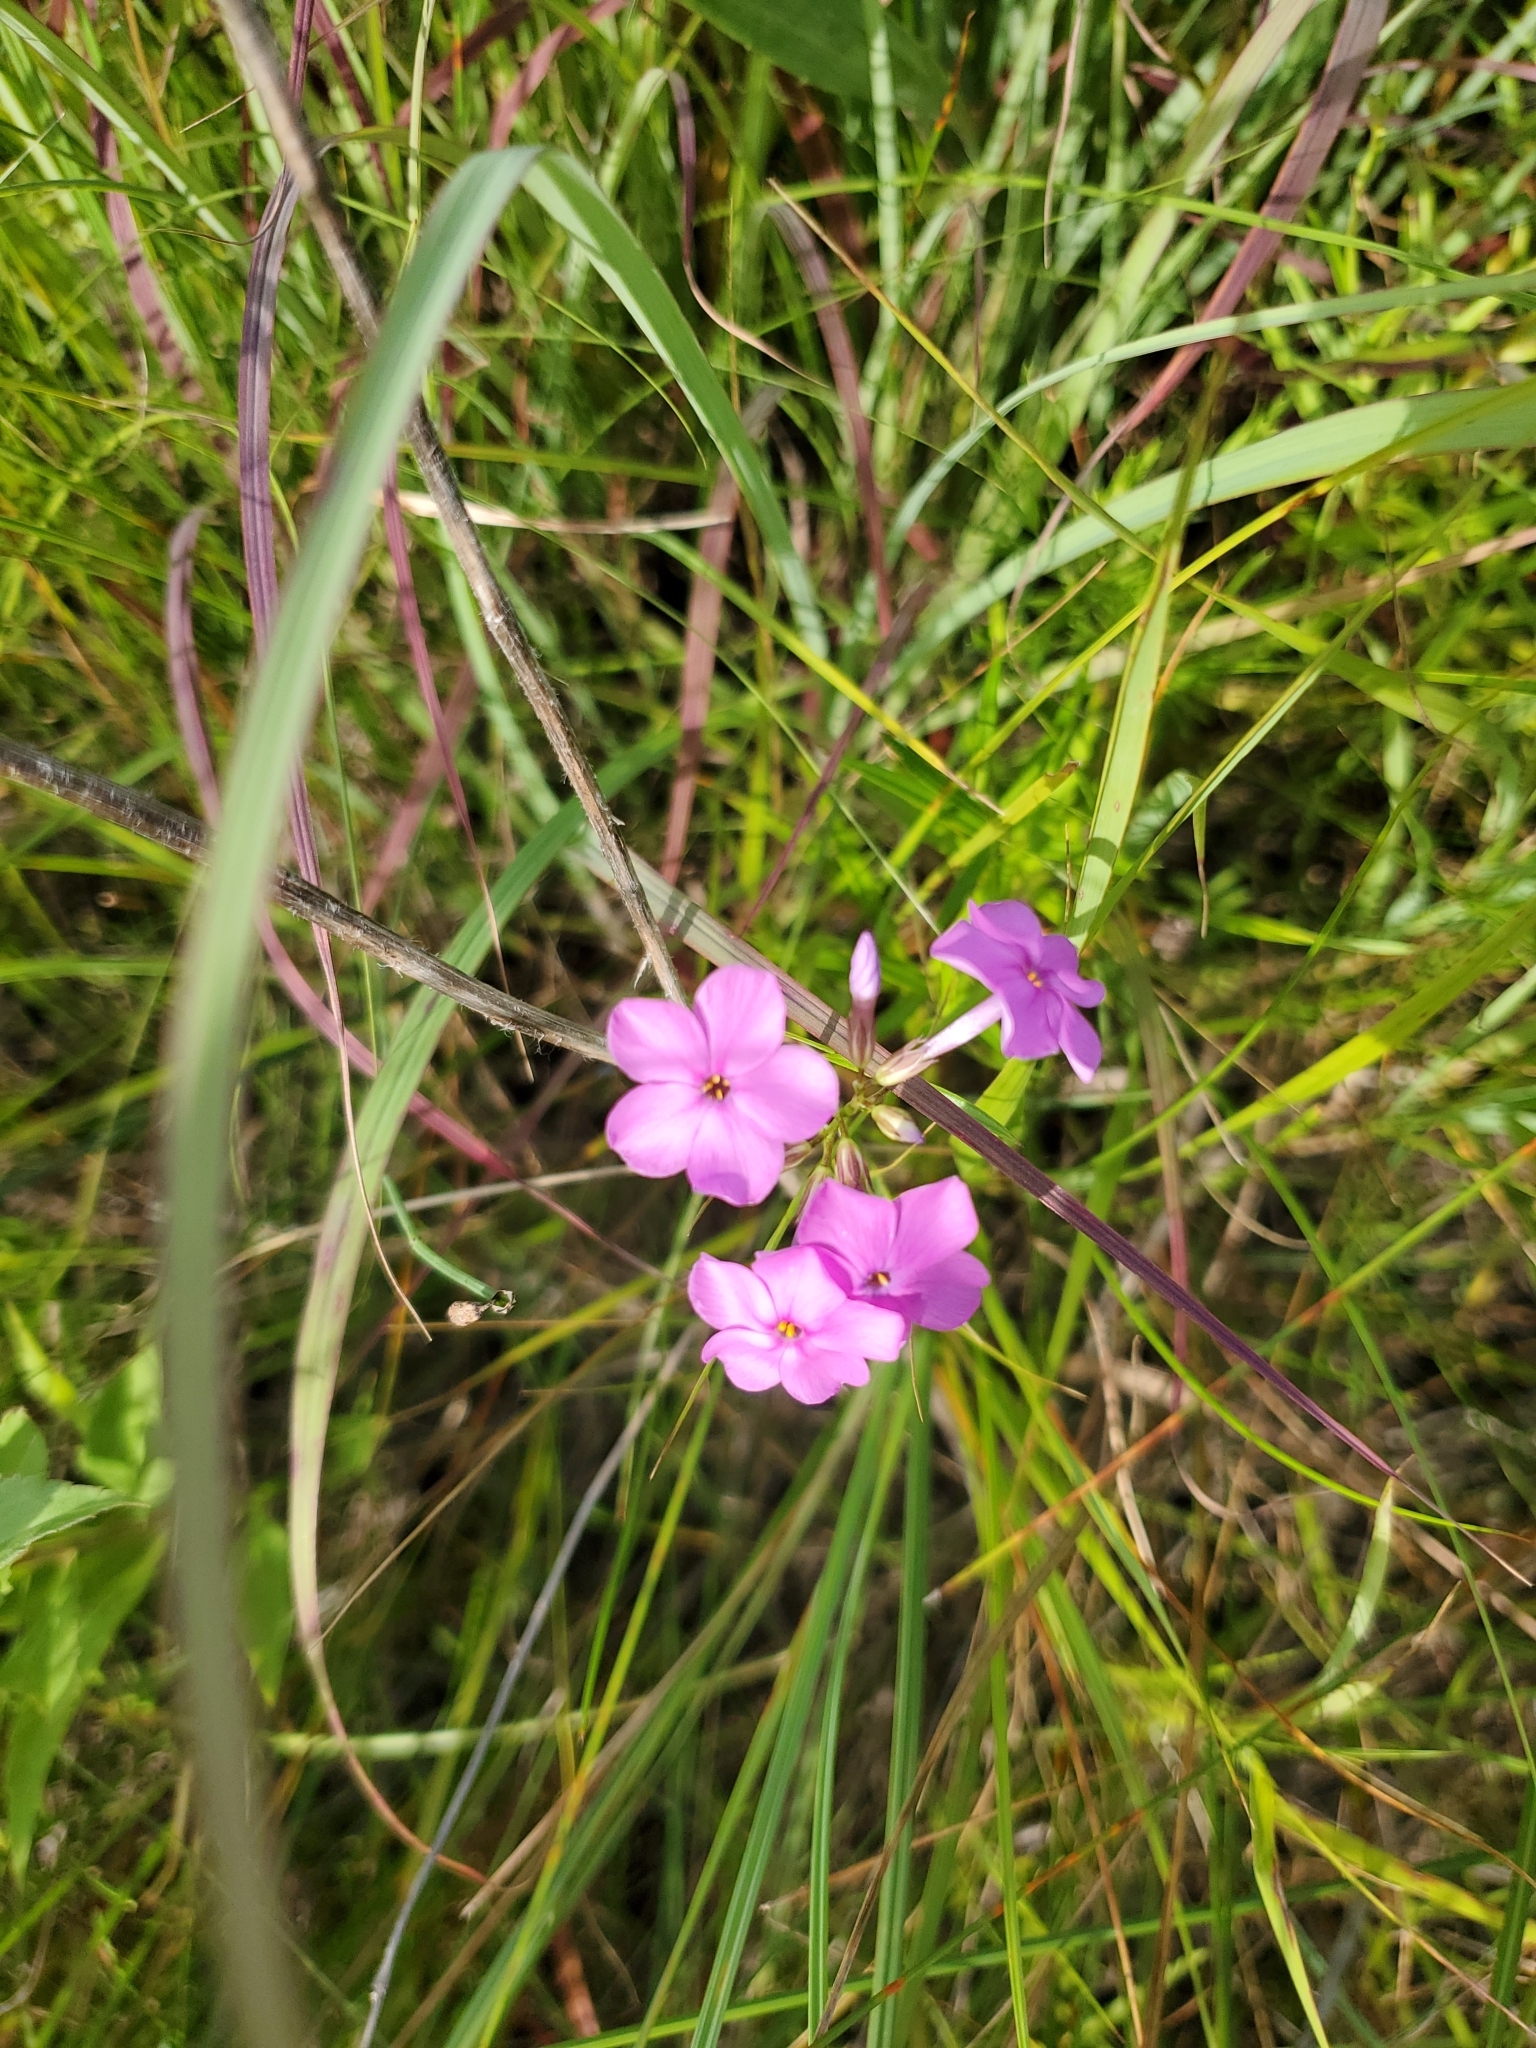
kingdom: Plantae
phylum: Tracheophyta
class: Magnoliopsida
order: Ericales
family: Polemoniaceae
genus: Phlox
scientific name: Phlox glaberrima
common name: Smooth phlox
